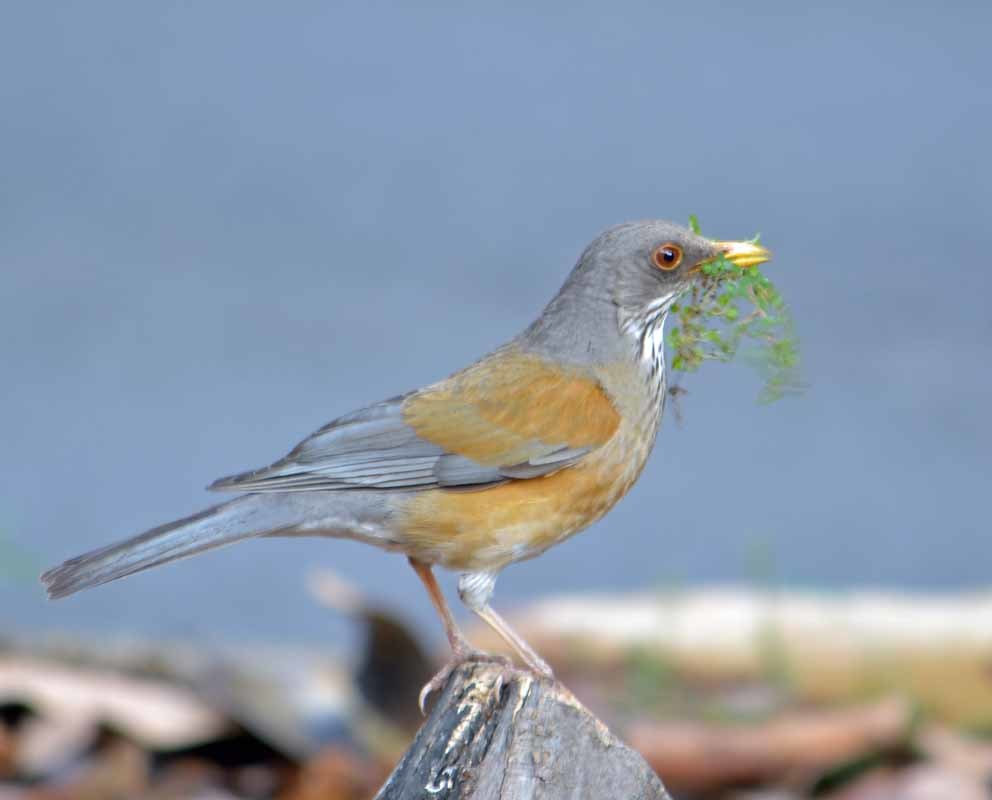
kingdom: Animalia
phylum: Chordata
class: Aves
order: Passeriformes
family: Turdidae
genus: Turdus
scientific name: Turdus rufopalliatus
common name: Rufous-backed robin
